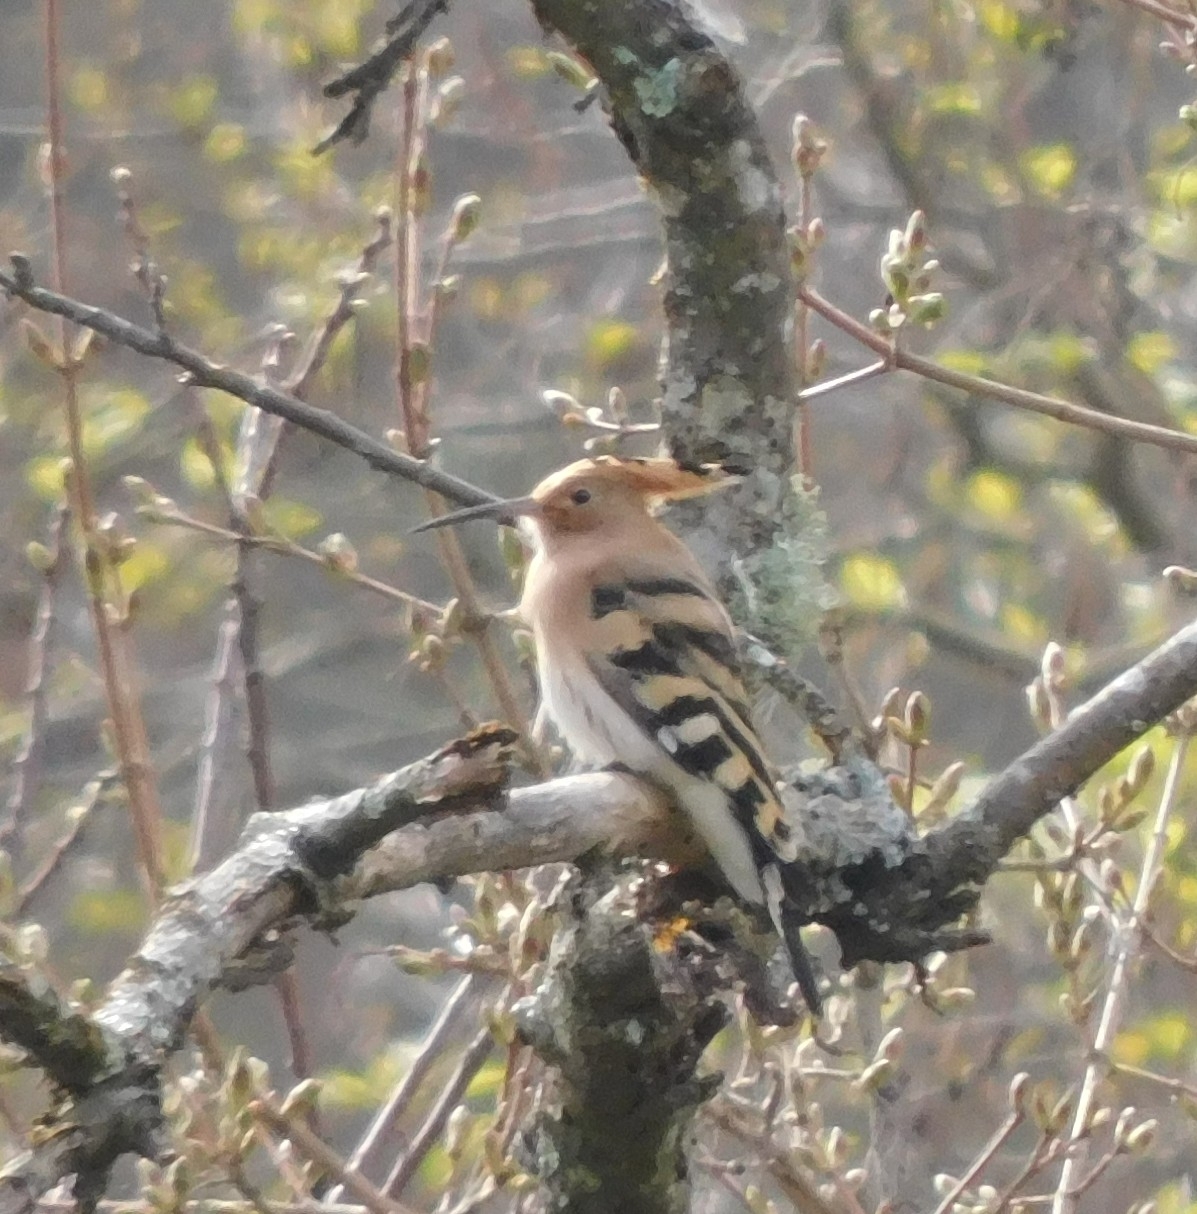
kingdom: Animalia
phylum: Chordata
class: Aves
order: Bucerotiformes
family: Upupidae
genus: Upupa
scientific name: Upupa epops
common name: Eurasian hoopoe
